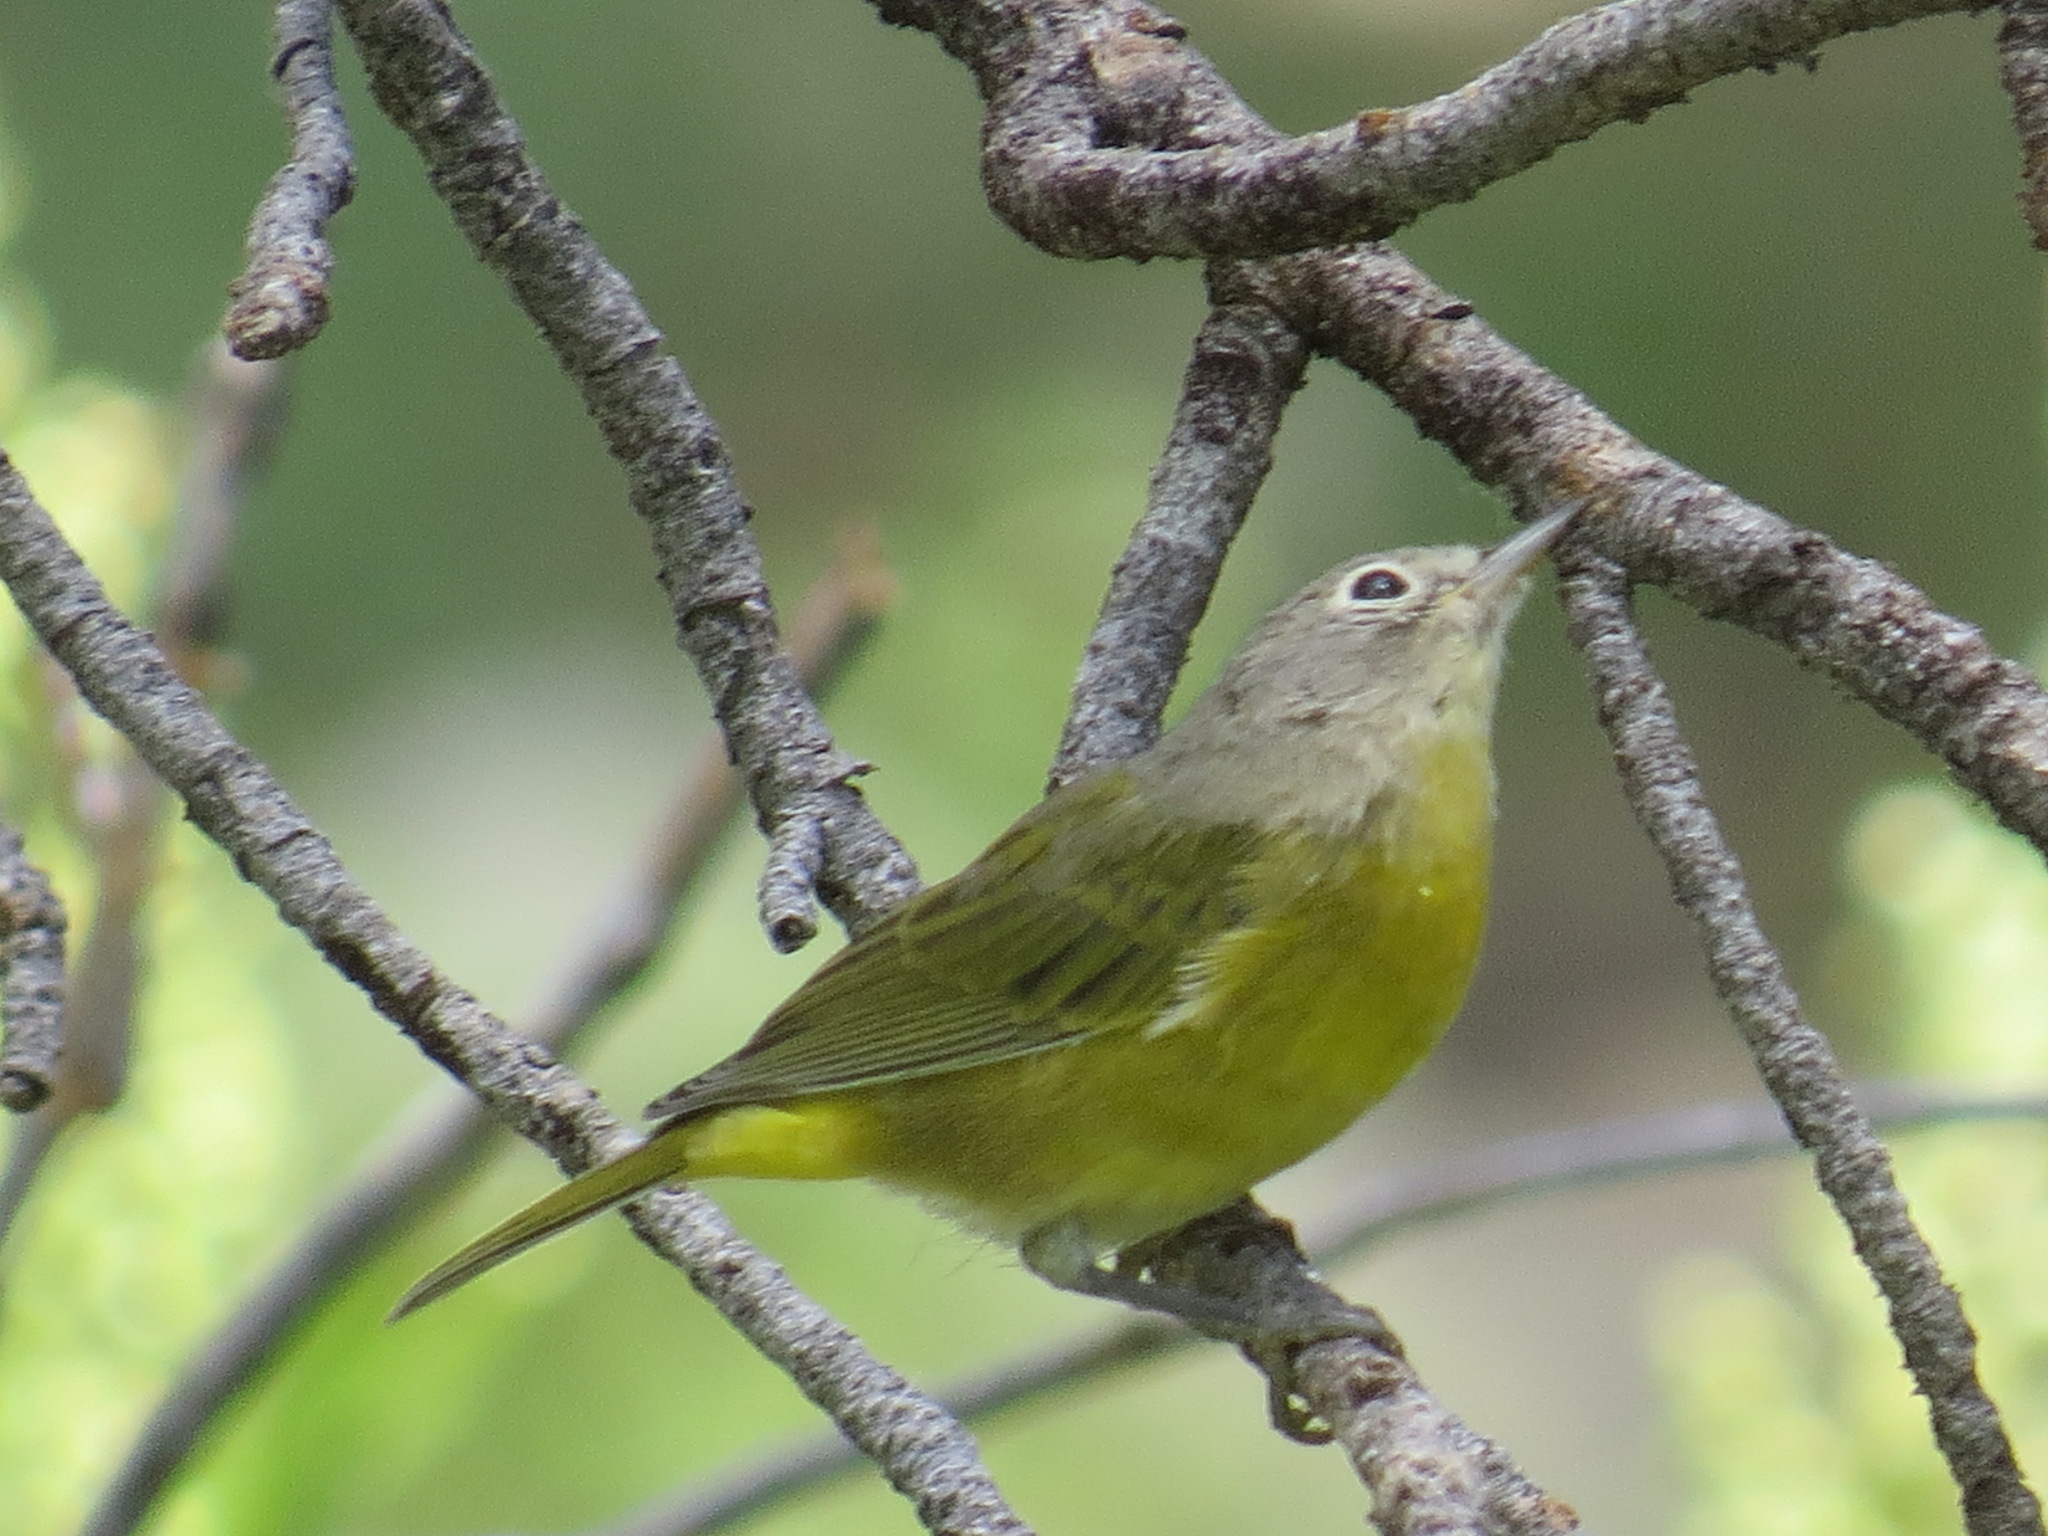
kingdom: Animalia
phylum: Chordata
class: Aves
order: Passeriformes
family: Parulidae
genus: Leiothlypis
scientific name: Leiothlypis ruficapilla
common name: Nashville warbler
